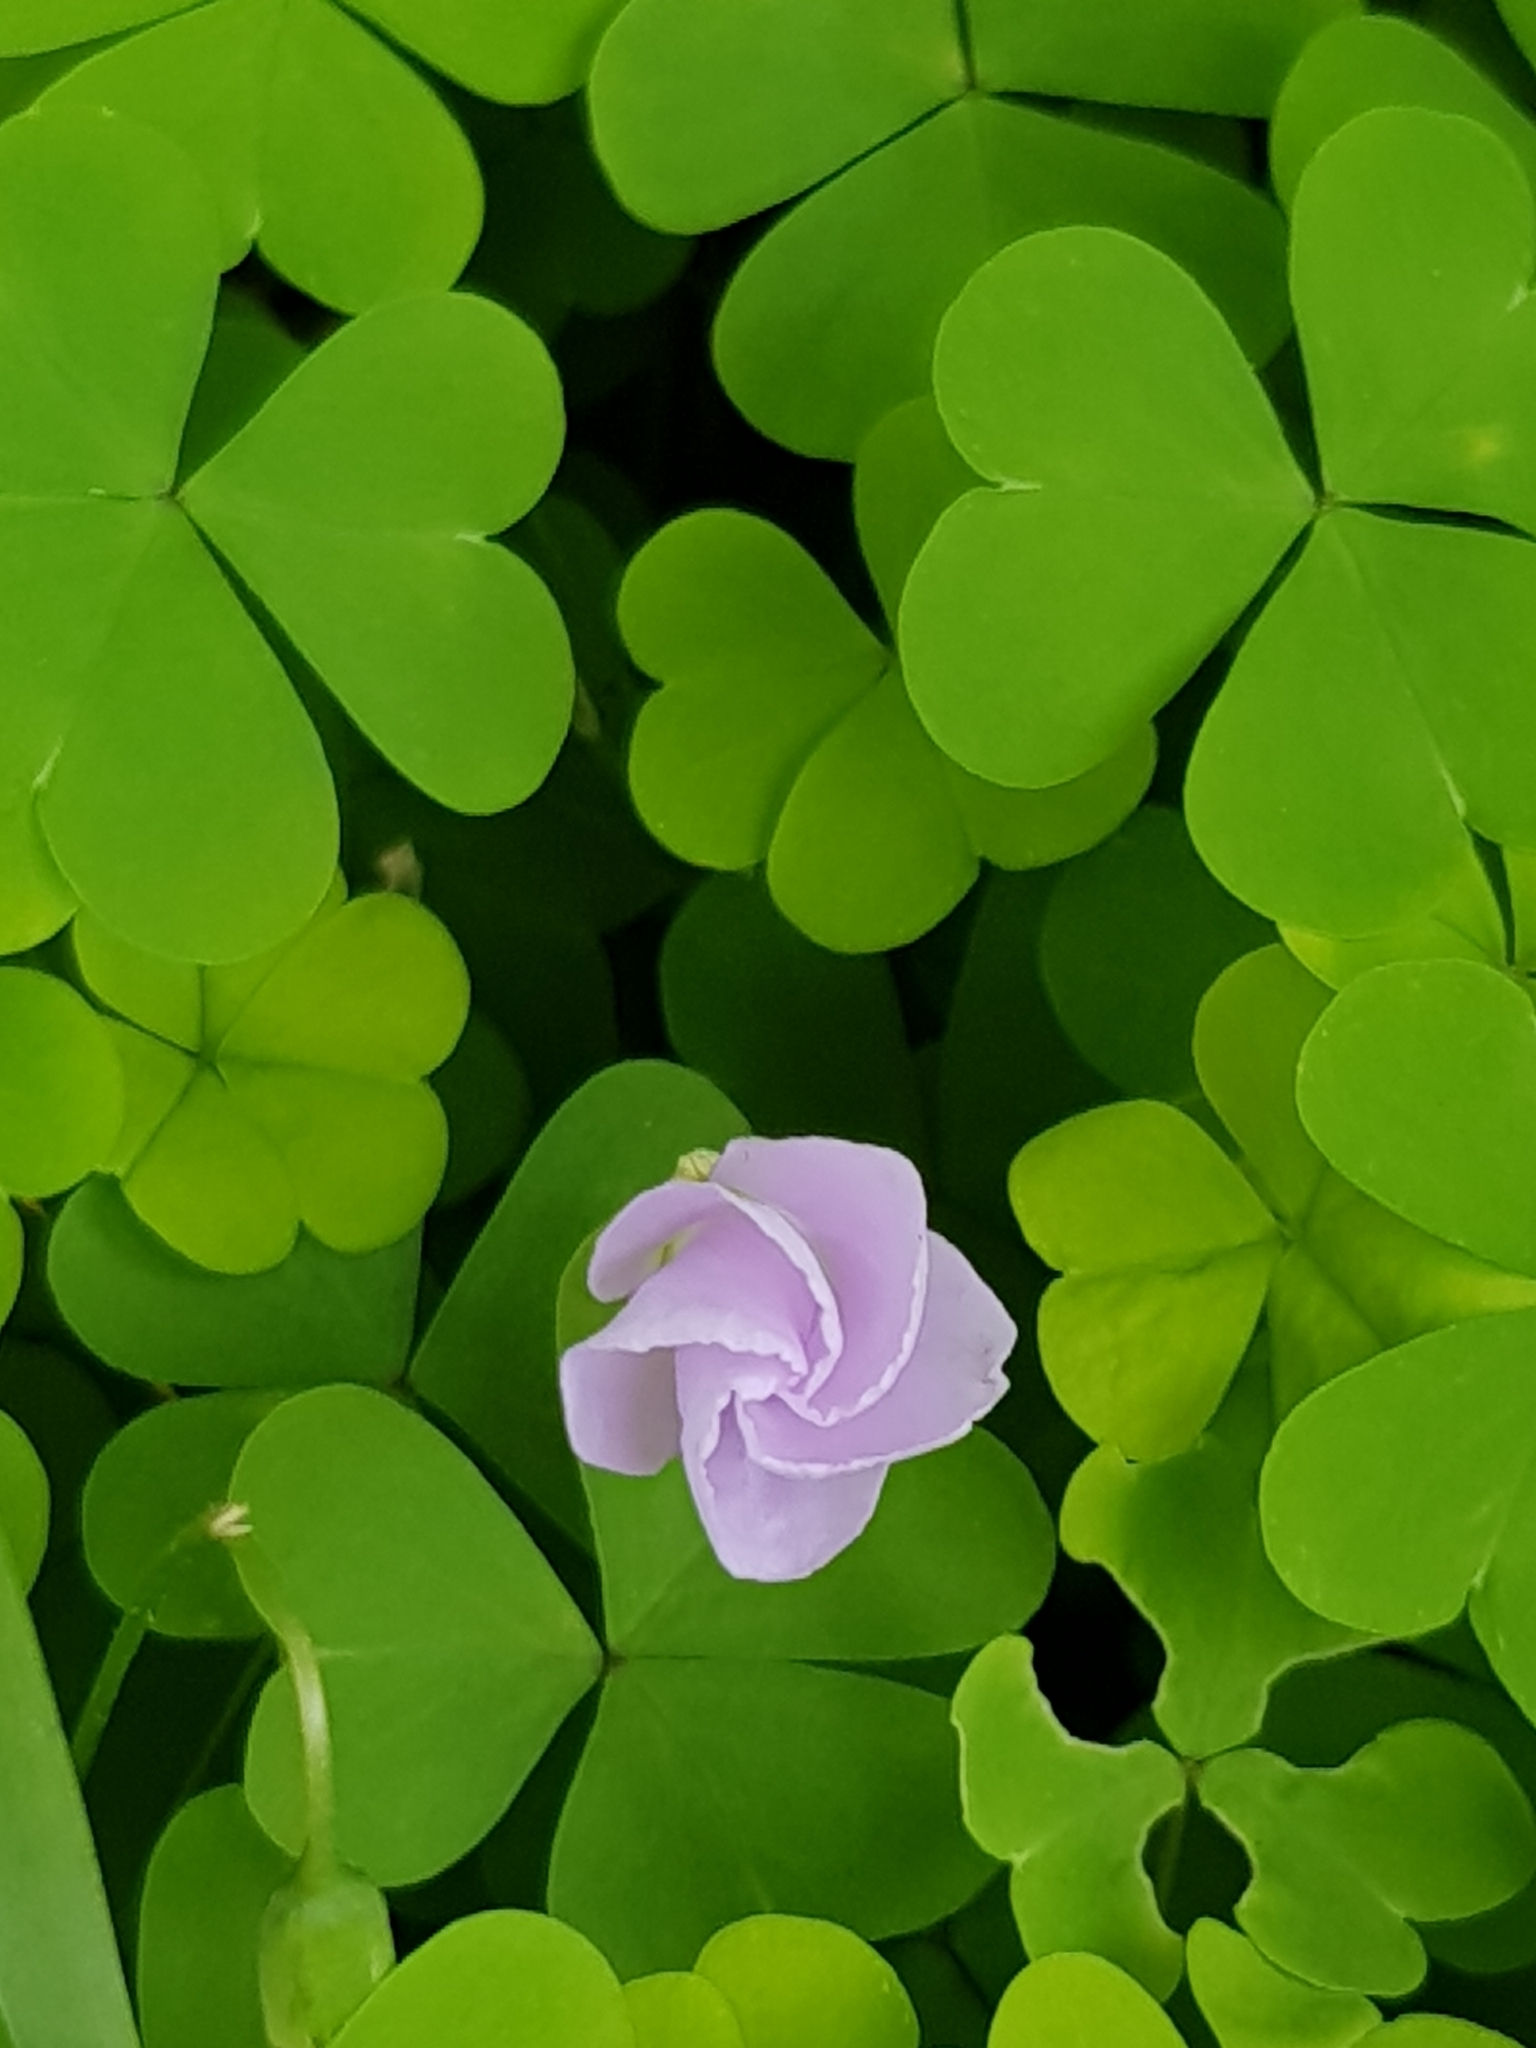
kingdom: Plantae
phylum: Tracheophyta
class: Magnoliopsida
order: Oxalidales
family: Oxalidaceae
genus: Oxalis
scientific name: Oxalis incarnata
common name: Pale pink-sorrel
